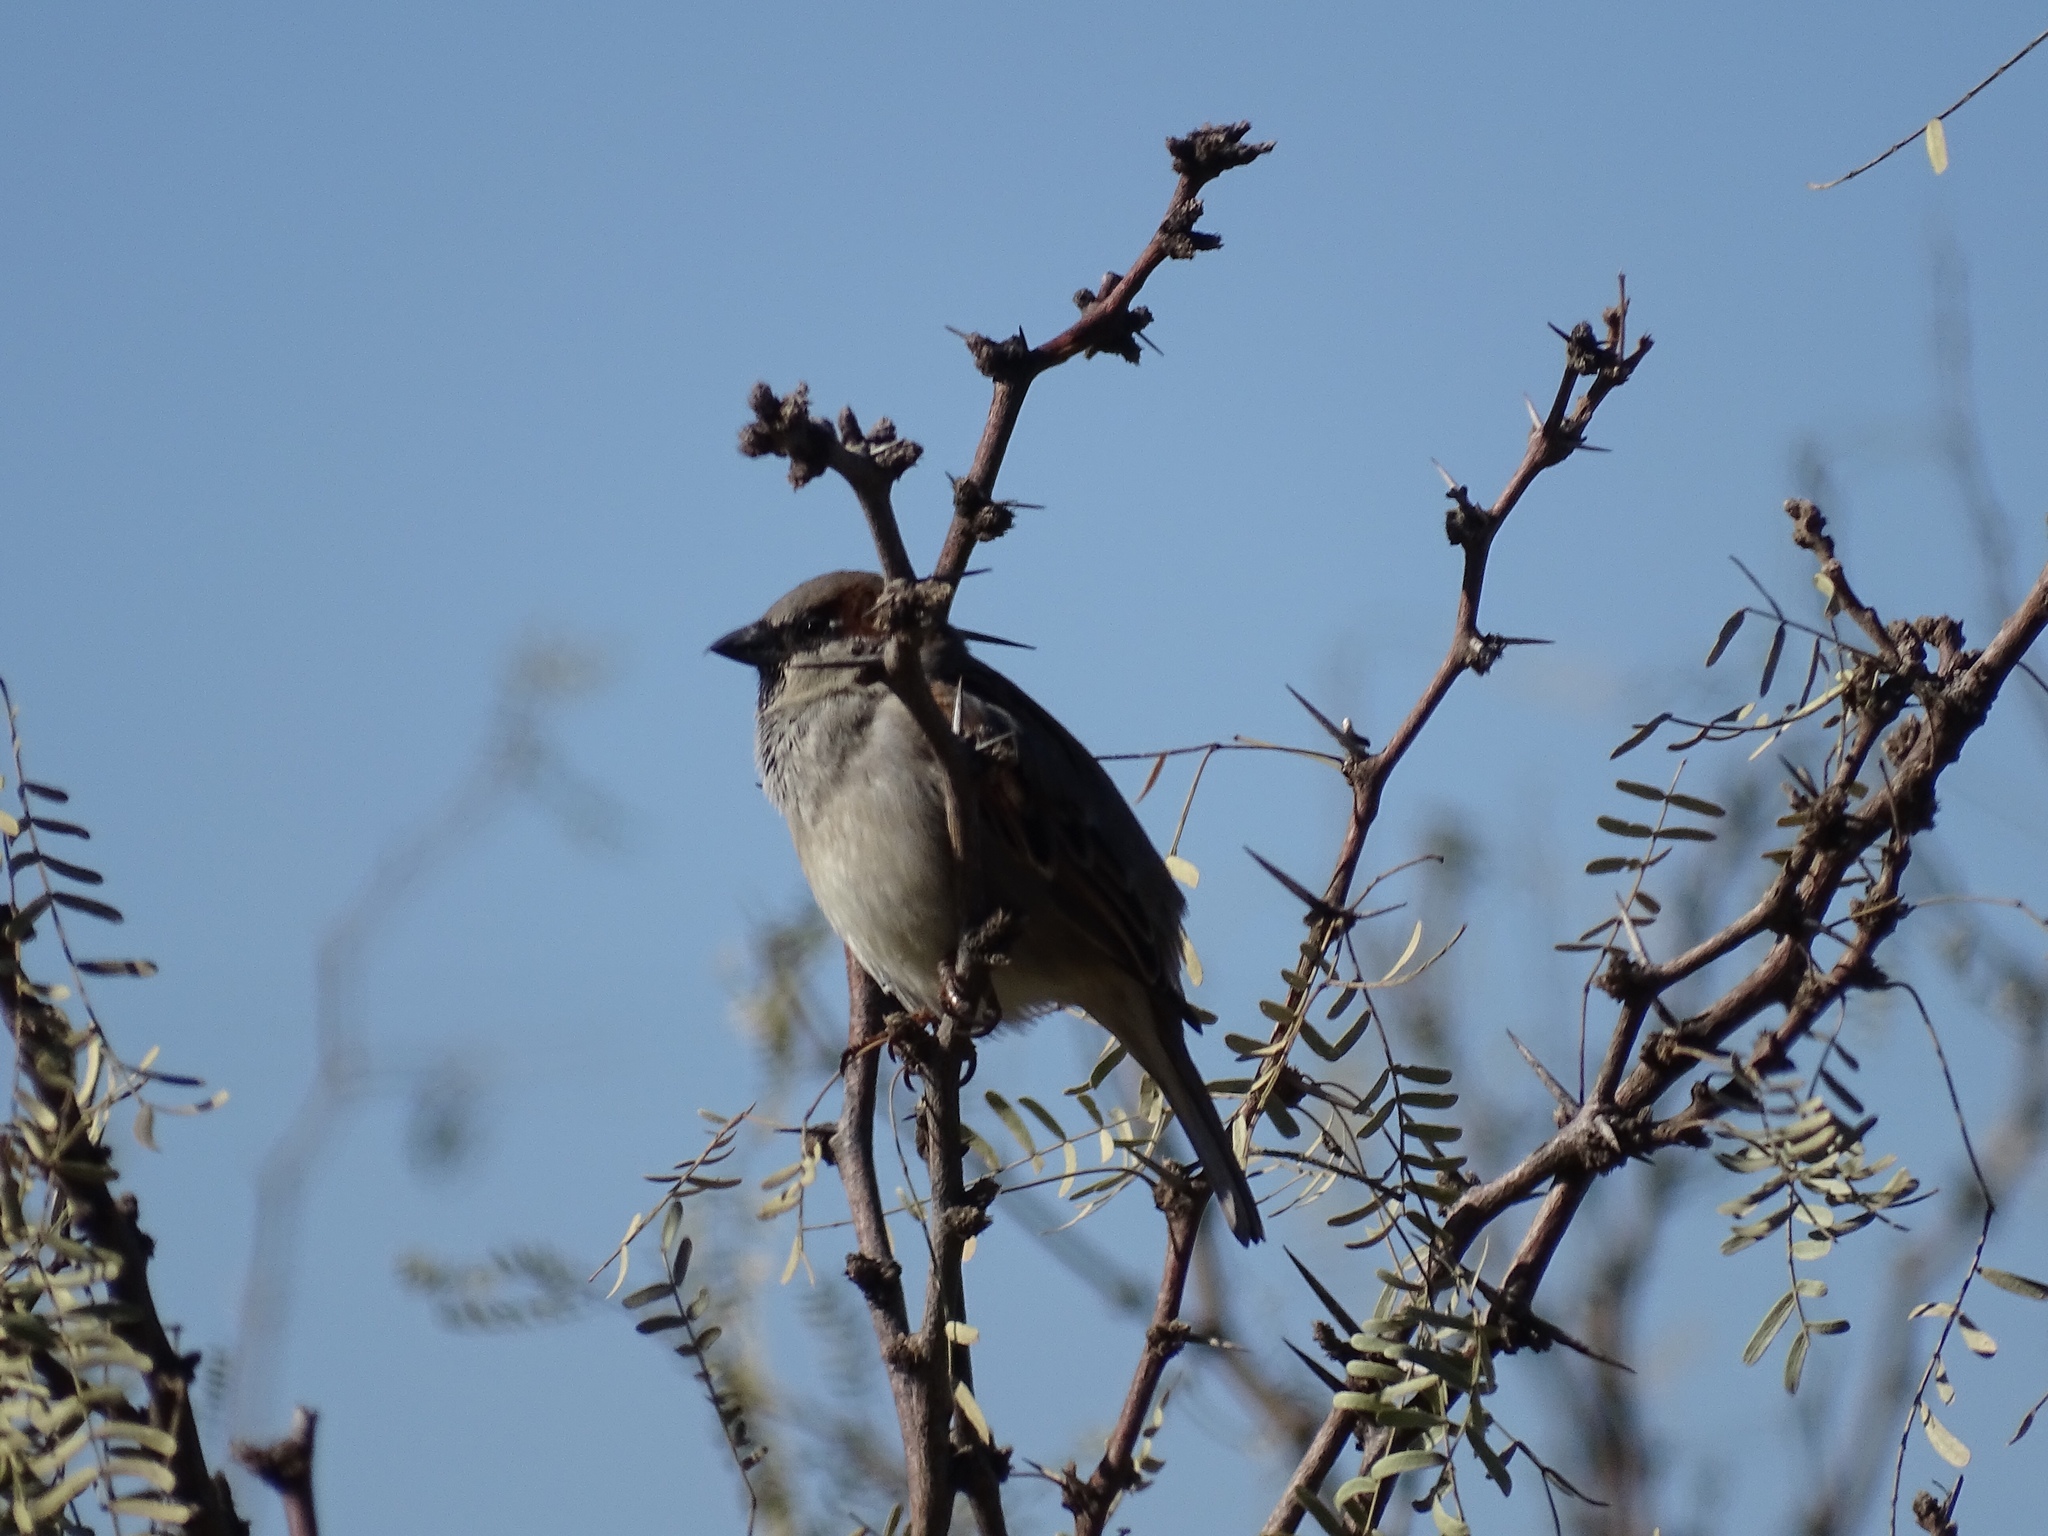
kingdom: Animalia
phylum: Chordata
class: Aves
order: Passeriformes
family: Passeridae
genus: Passer
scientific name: Passer domesticus
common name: House sparrow
